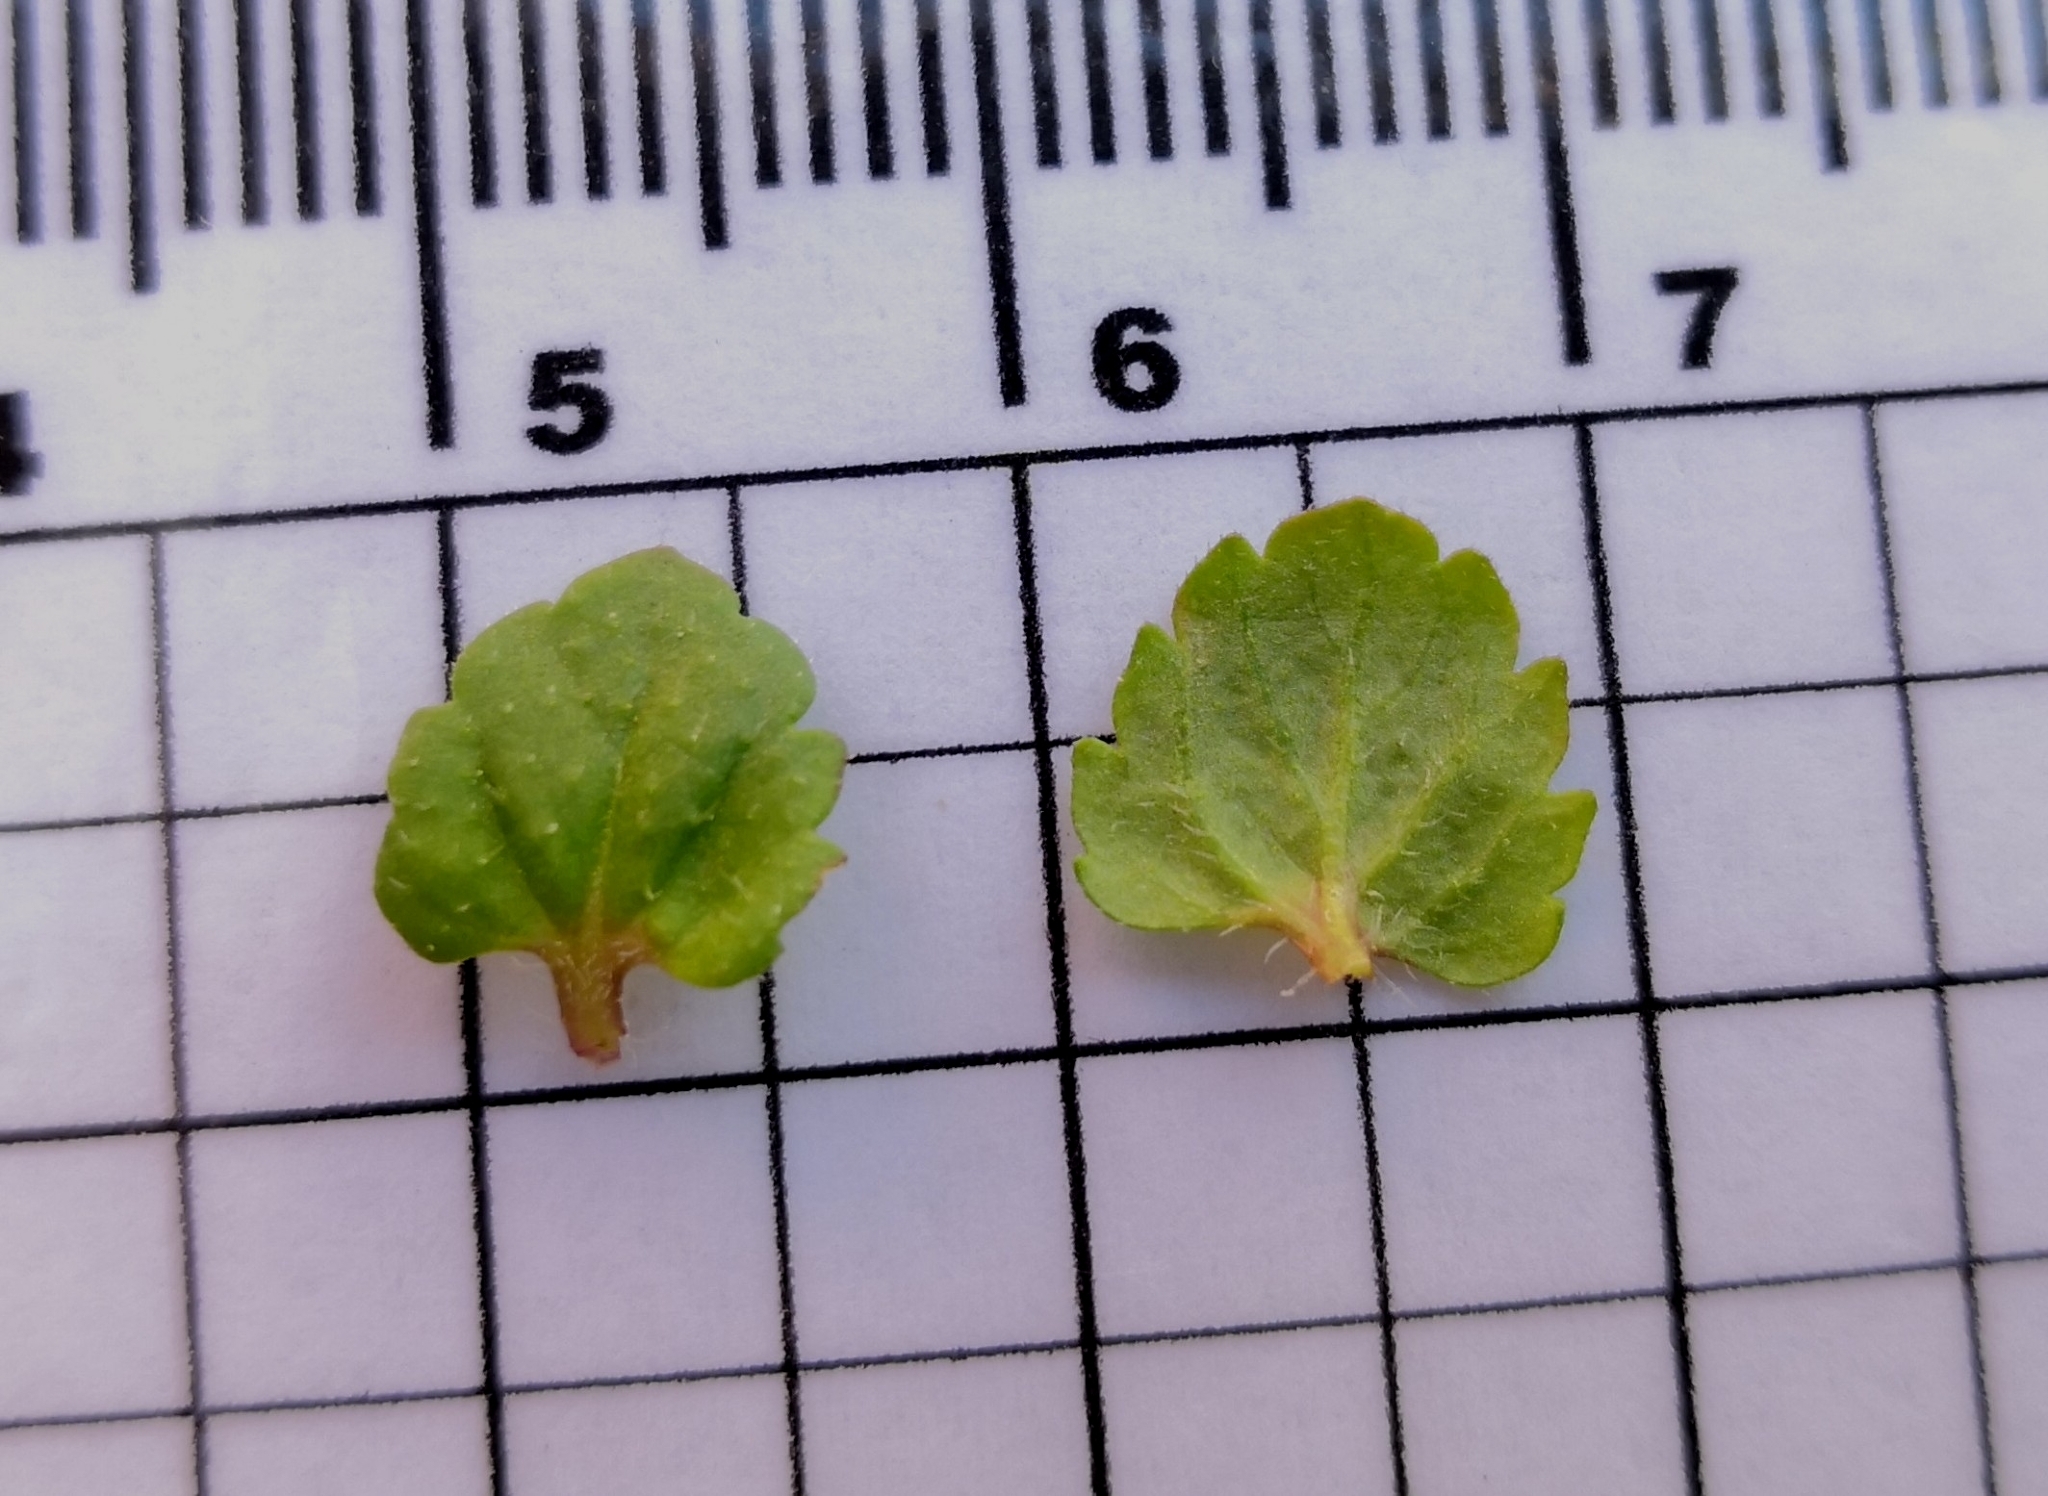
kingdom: Plantae
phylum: Tracheophyta
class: Magnoliopsida
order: Lamiales
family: Plantaginaceae
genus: Veronica
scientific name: Veronica persica
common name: Common field-speedwell
